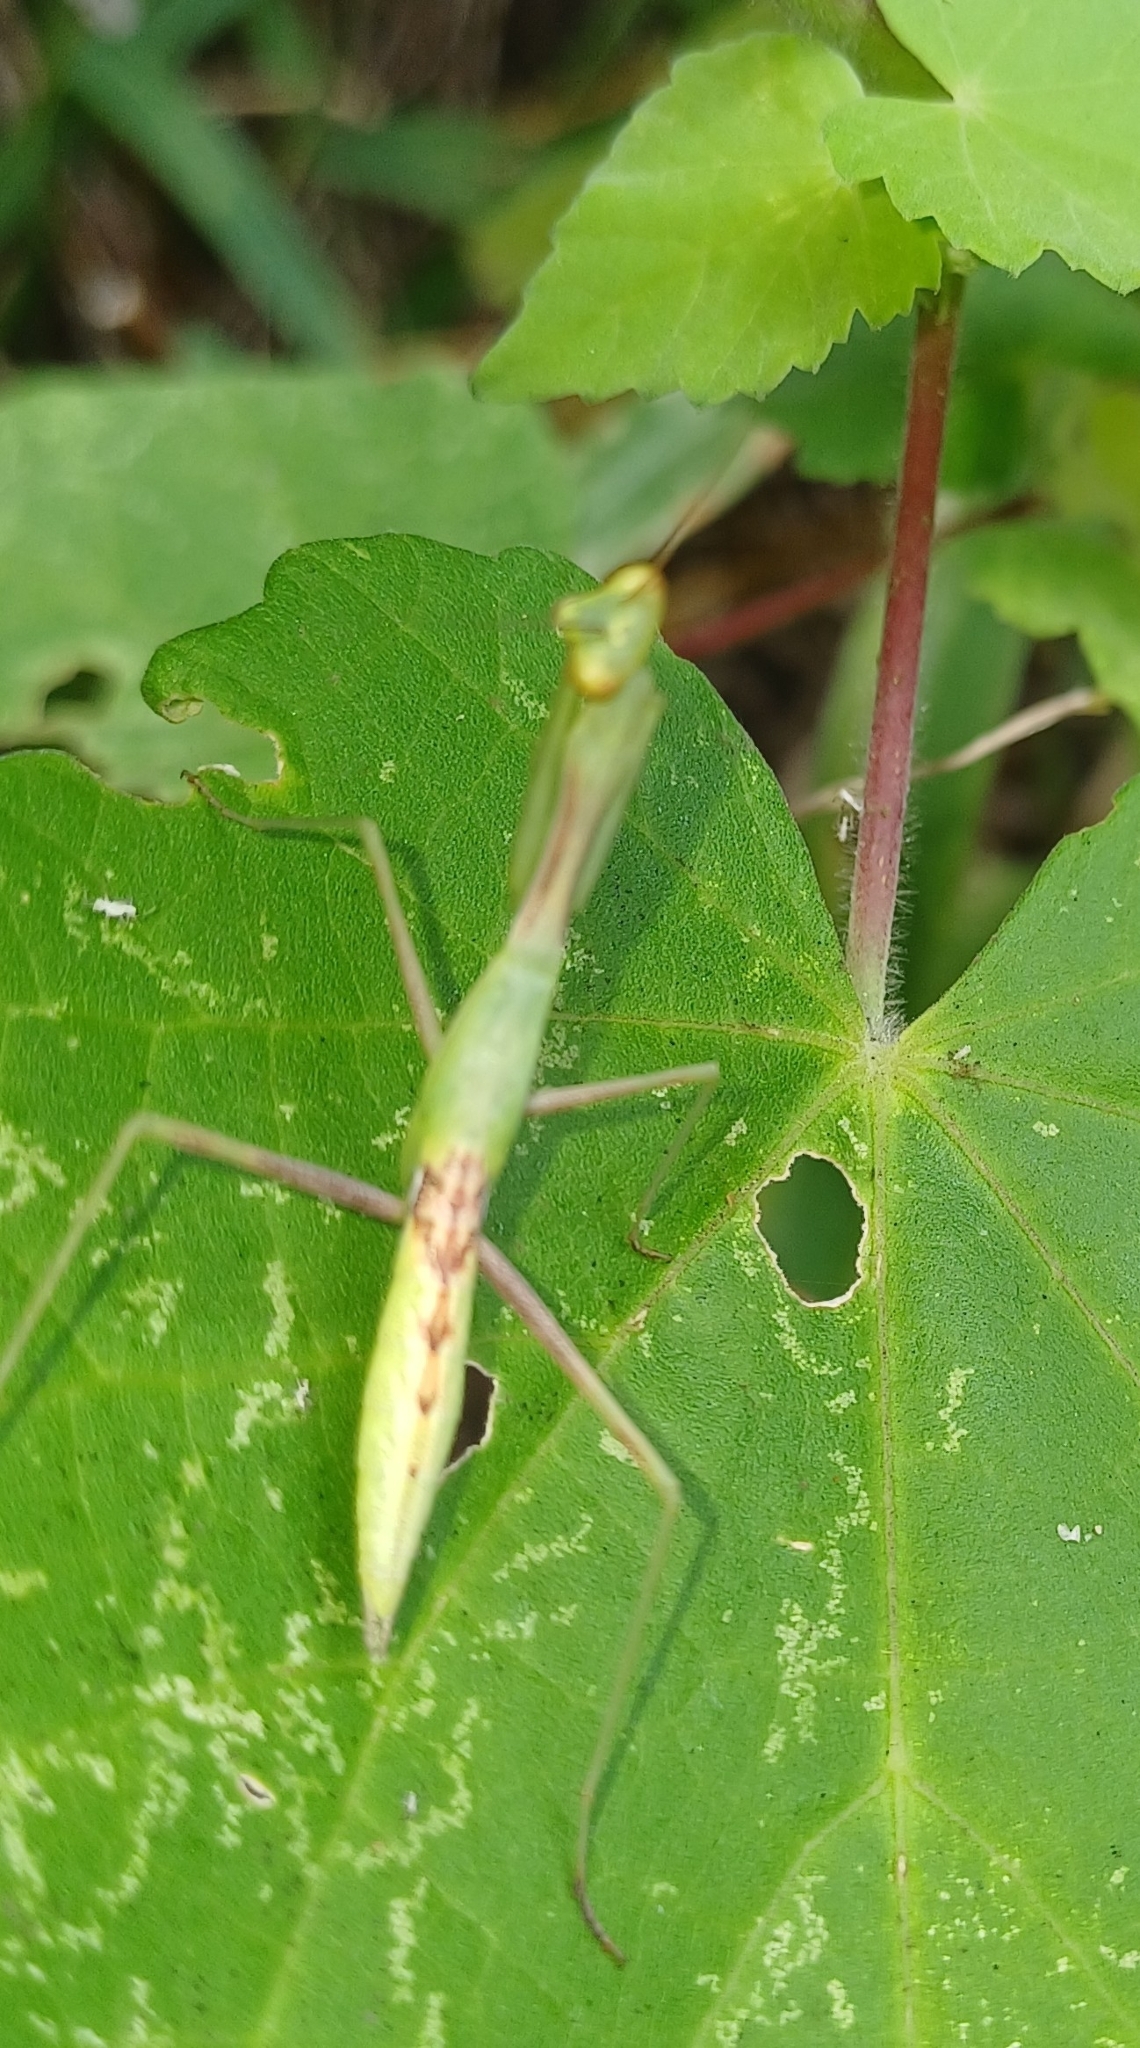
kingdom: Animalia
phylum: Arthropoda
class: Insecta
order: Mantodea
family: Miomantidae
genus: Miomantis
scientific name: Miomantis caffra
